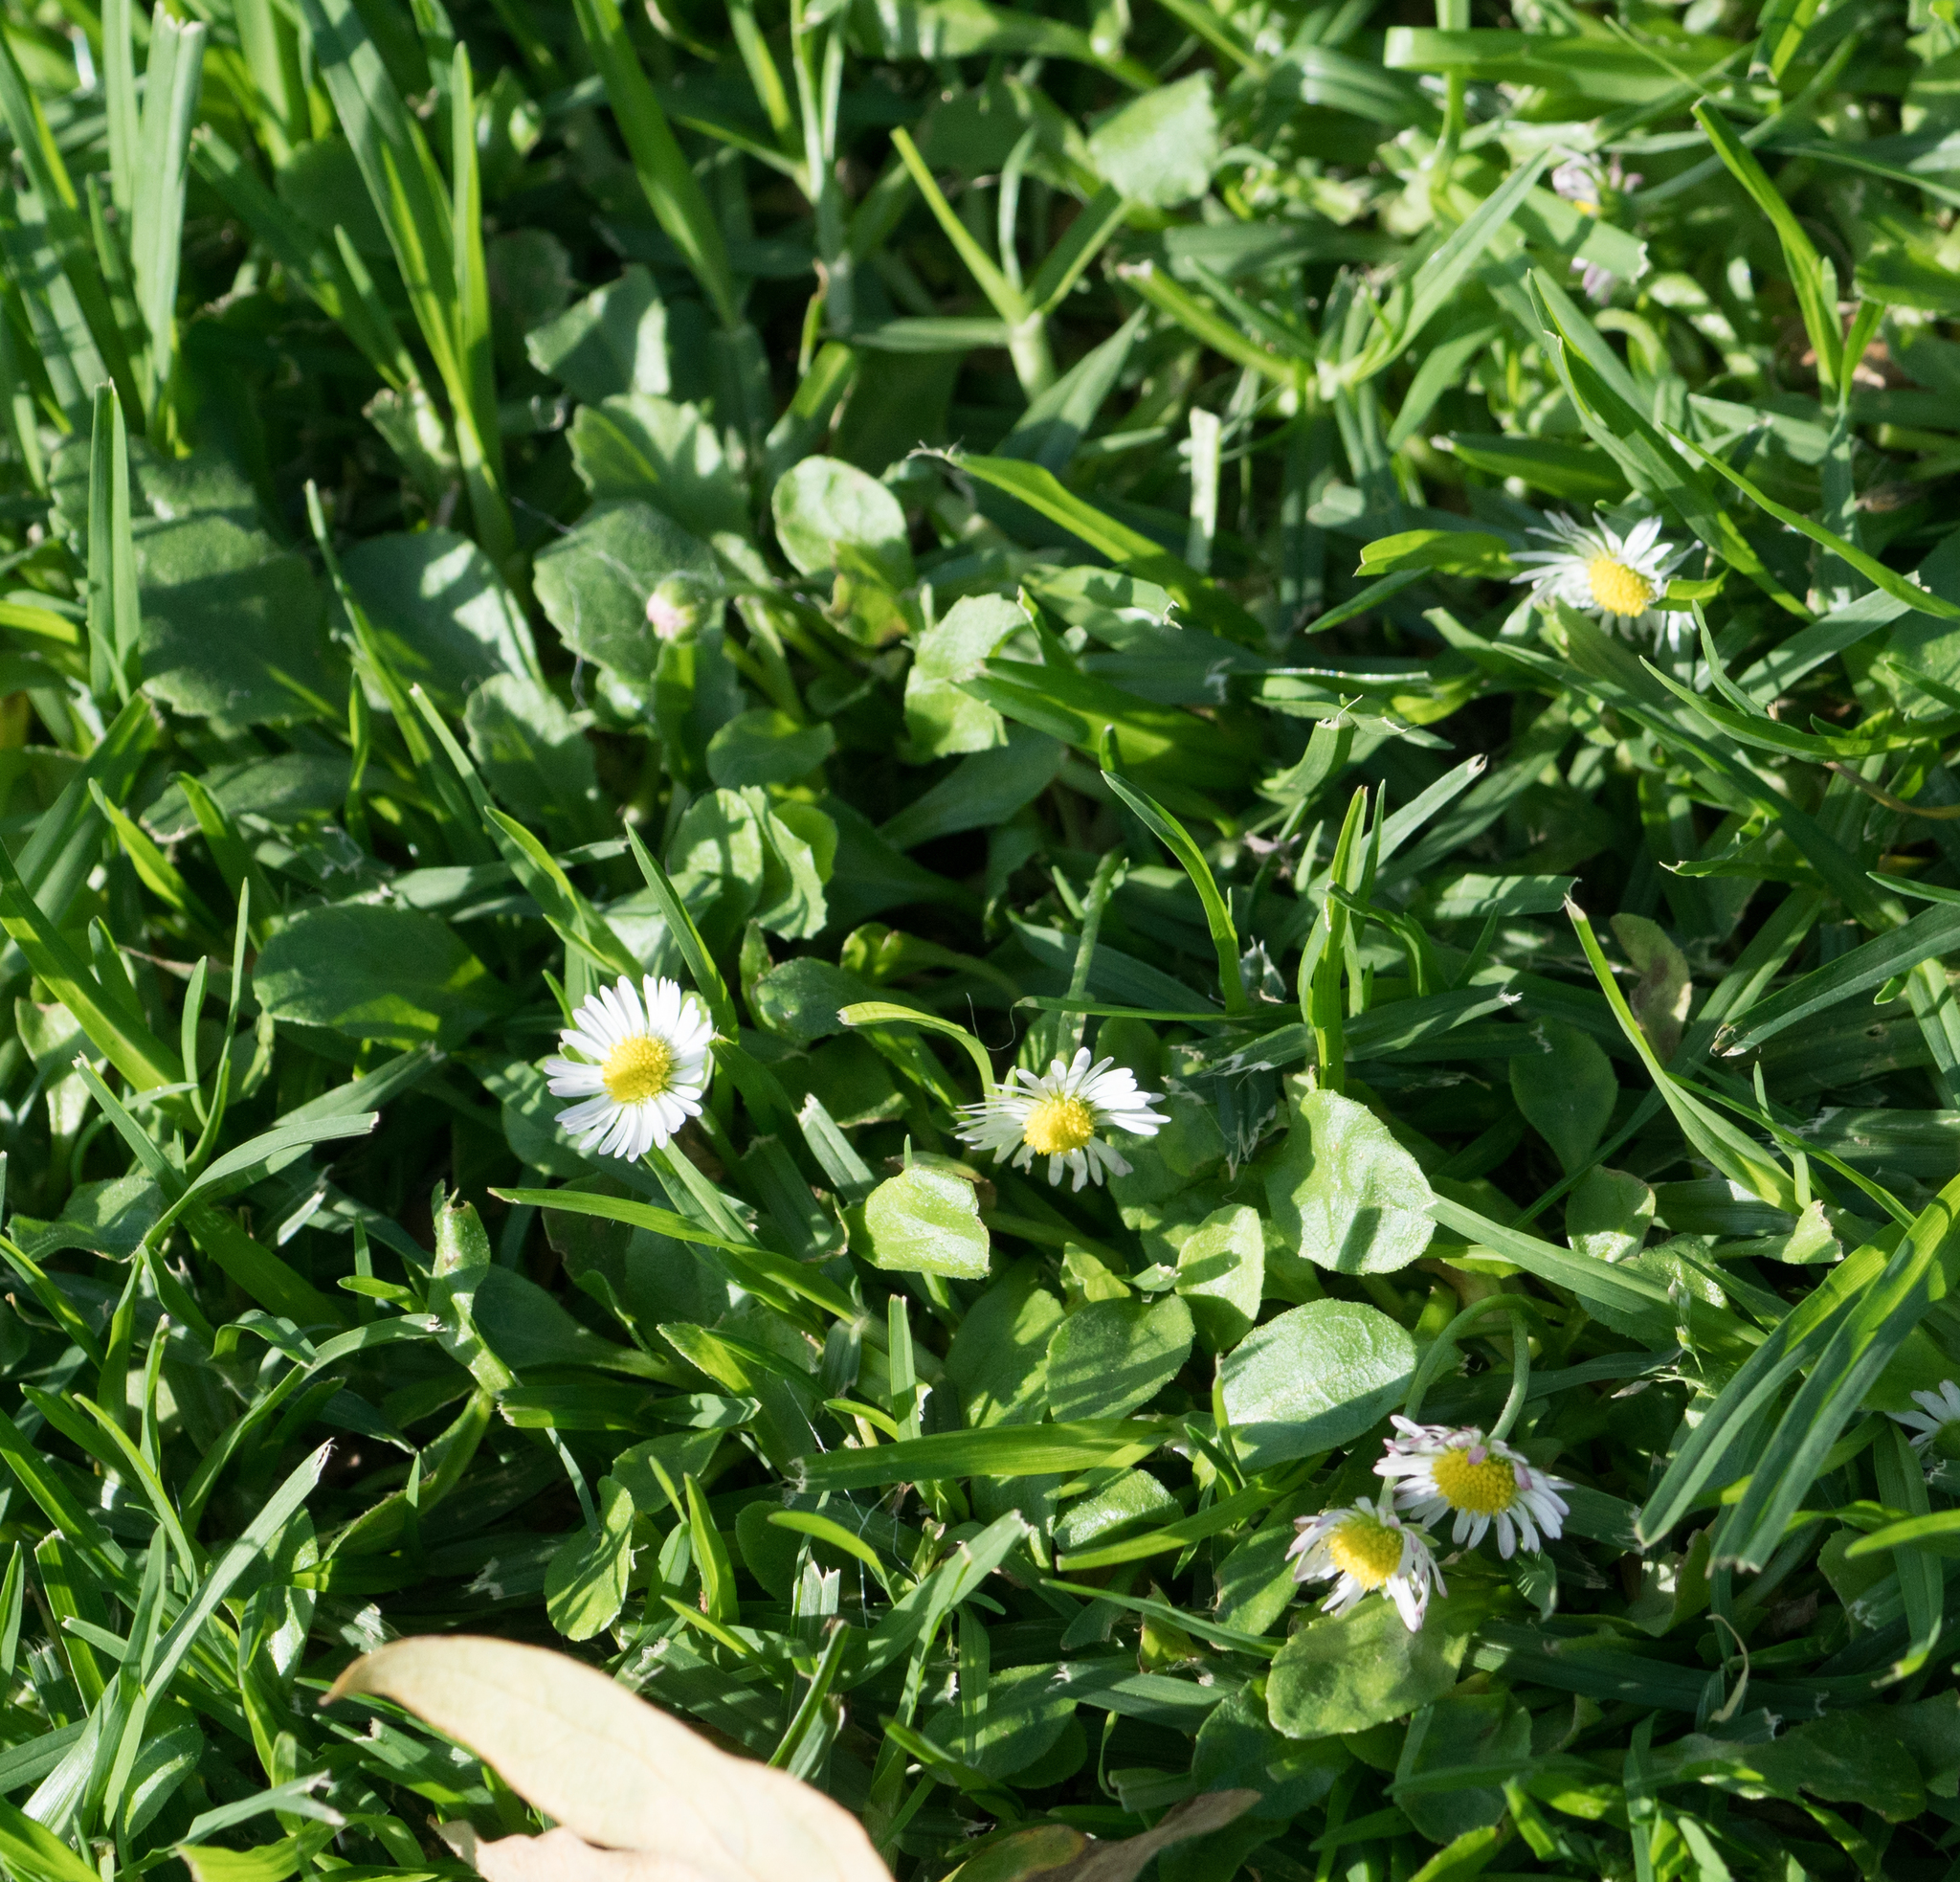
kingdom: Plantae
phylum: Tracheophyta
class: Magnoliopsida
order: Asterales
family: Asteraceae
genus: Bellis
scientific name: Bellis perennis
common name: Lawndaisy
